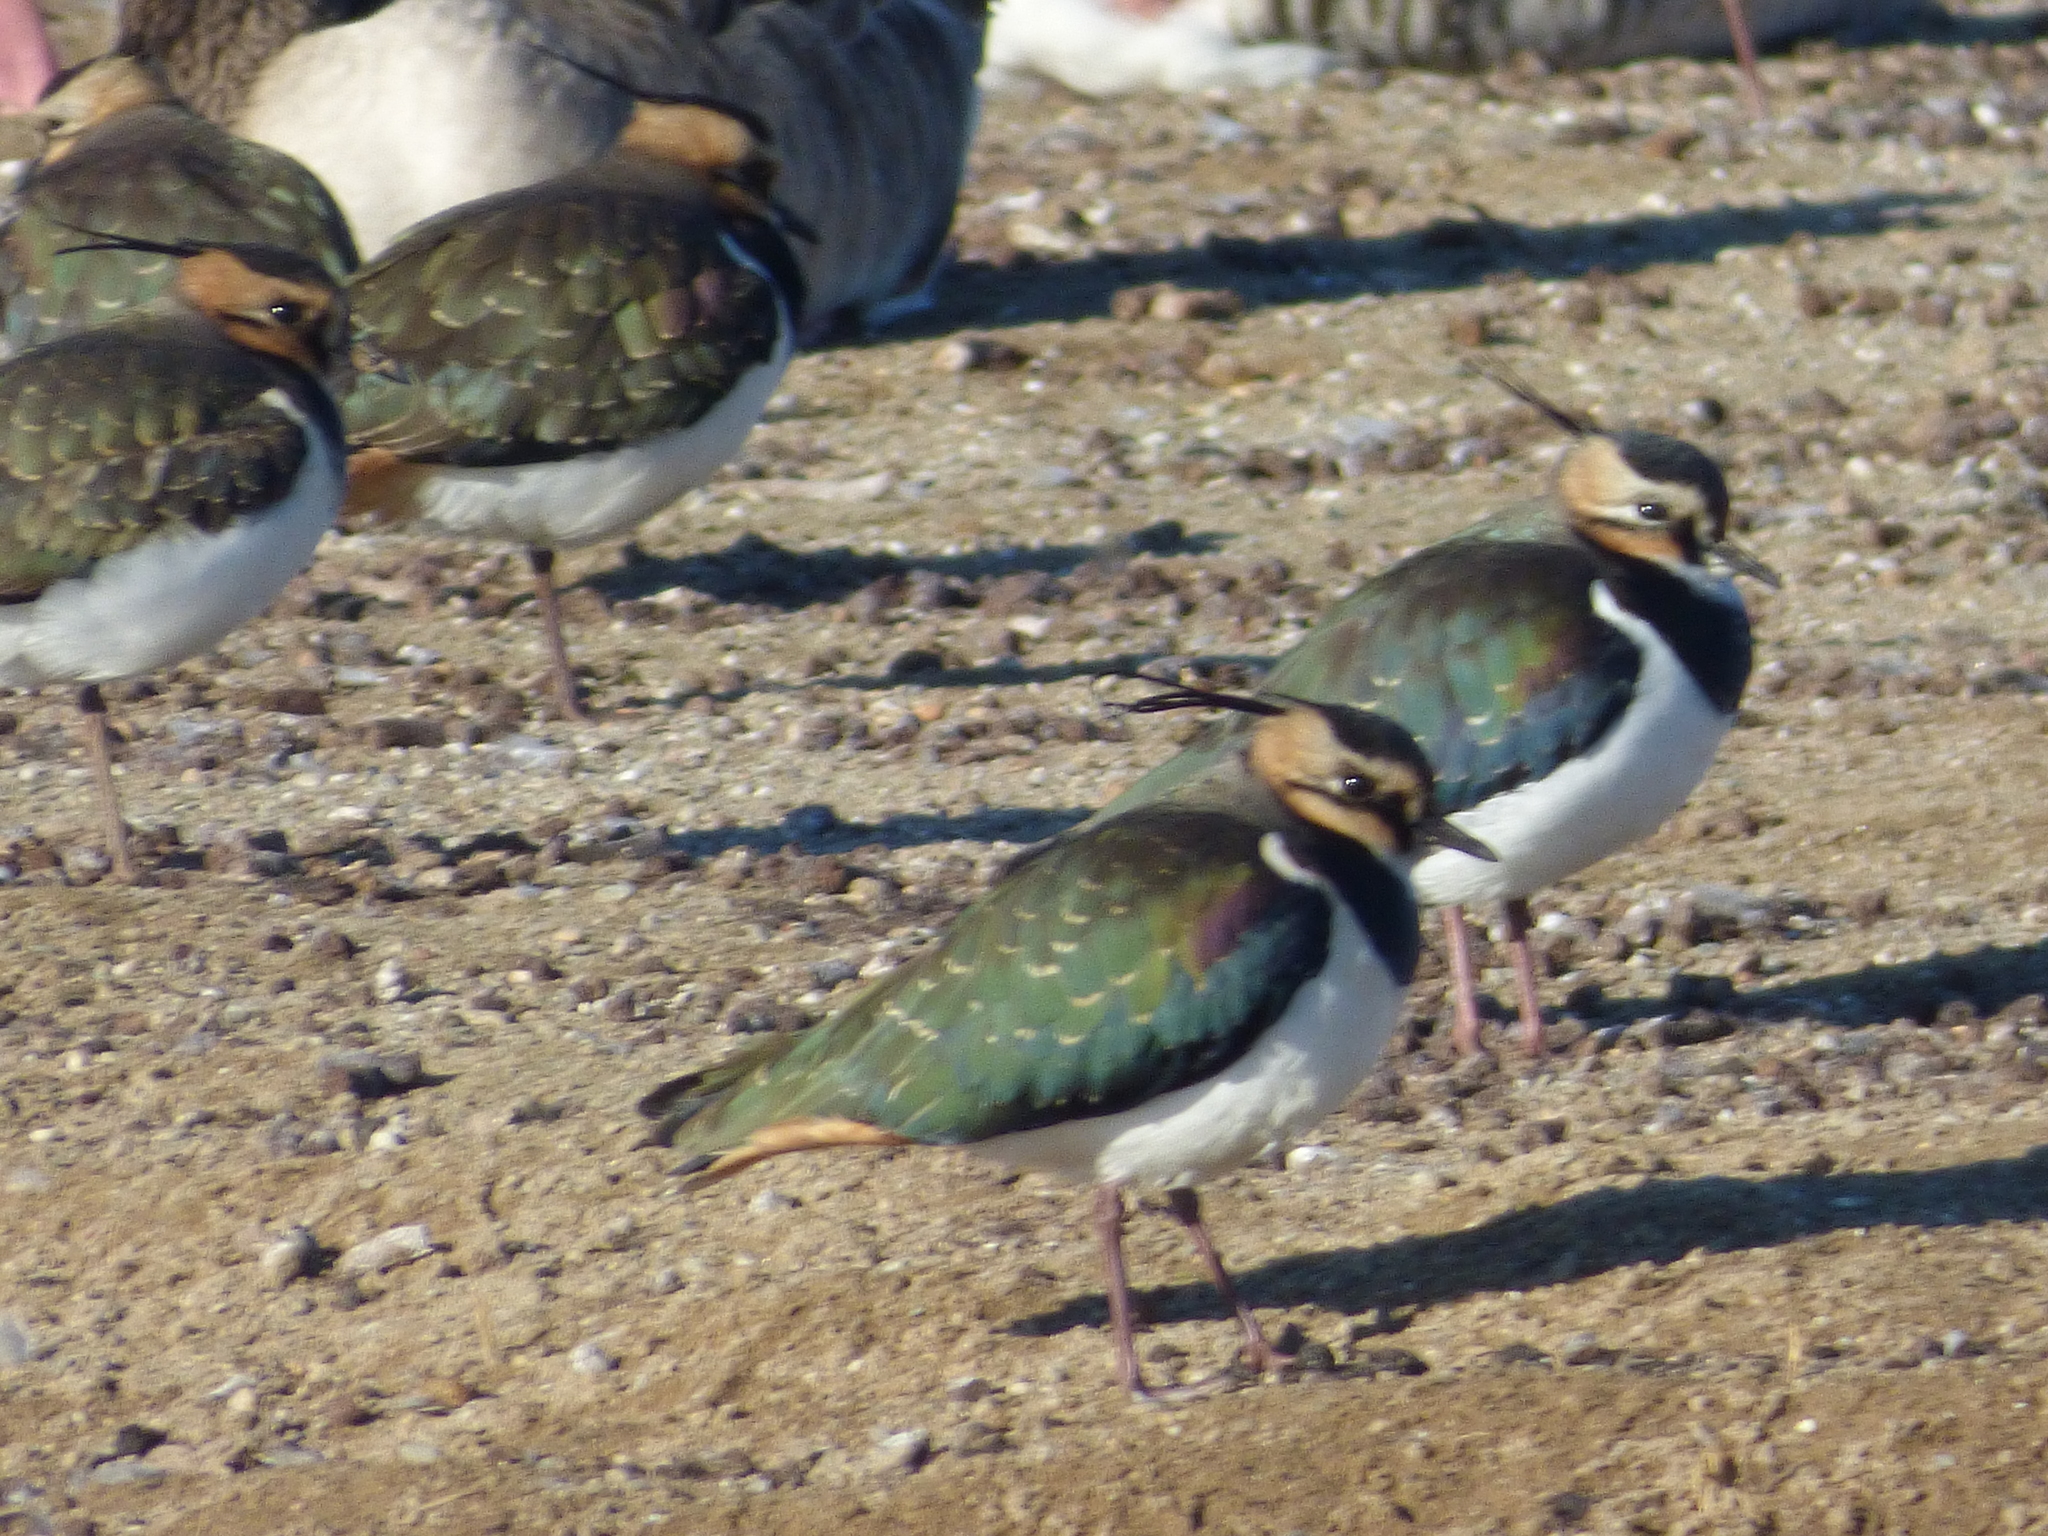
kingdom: Animalia
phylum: Chordata
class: Aves
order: Charadriiformes
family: Charadriidae
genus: Vanellus
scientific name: Vanellus vanellus
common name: Northern lapwing
